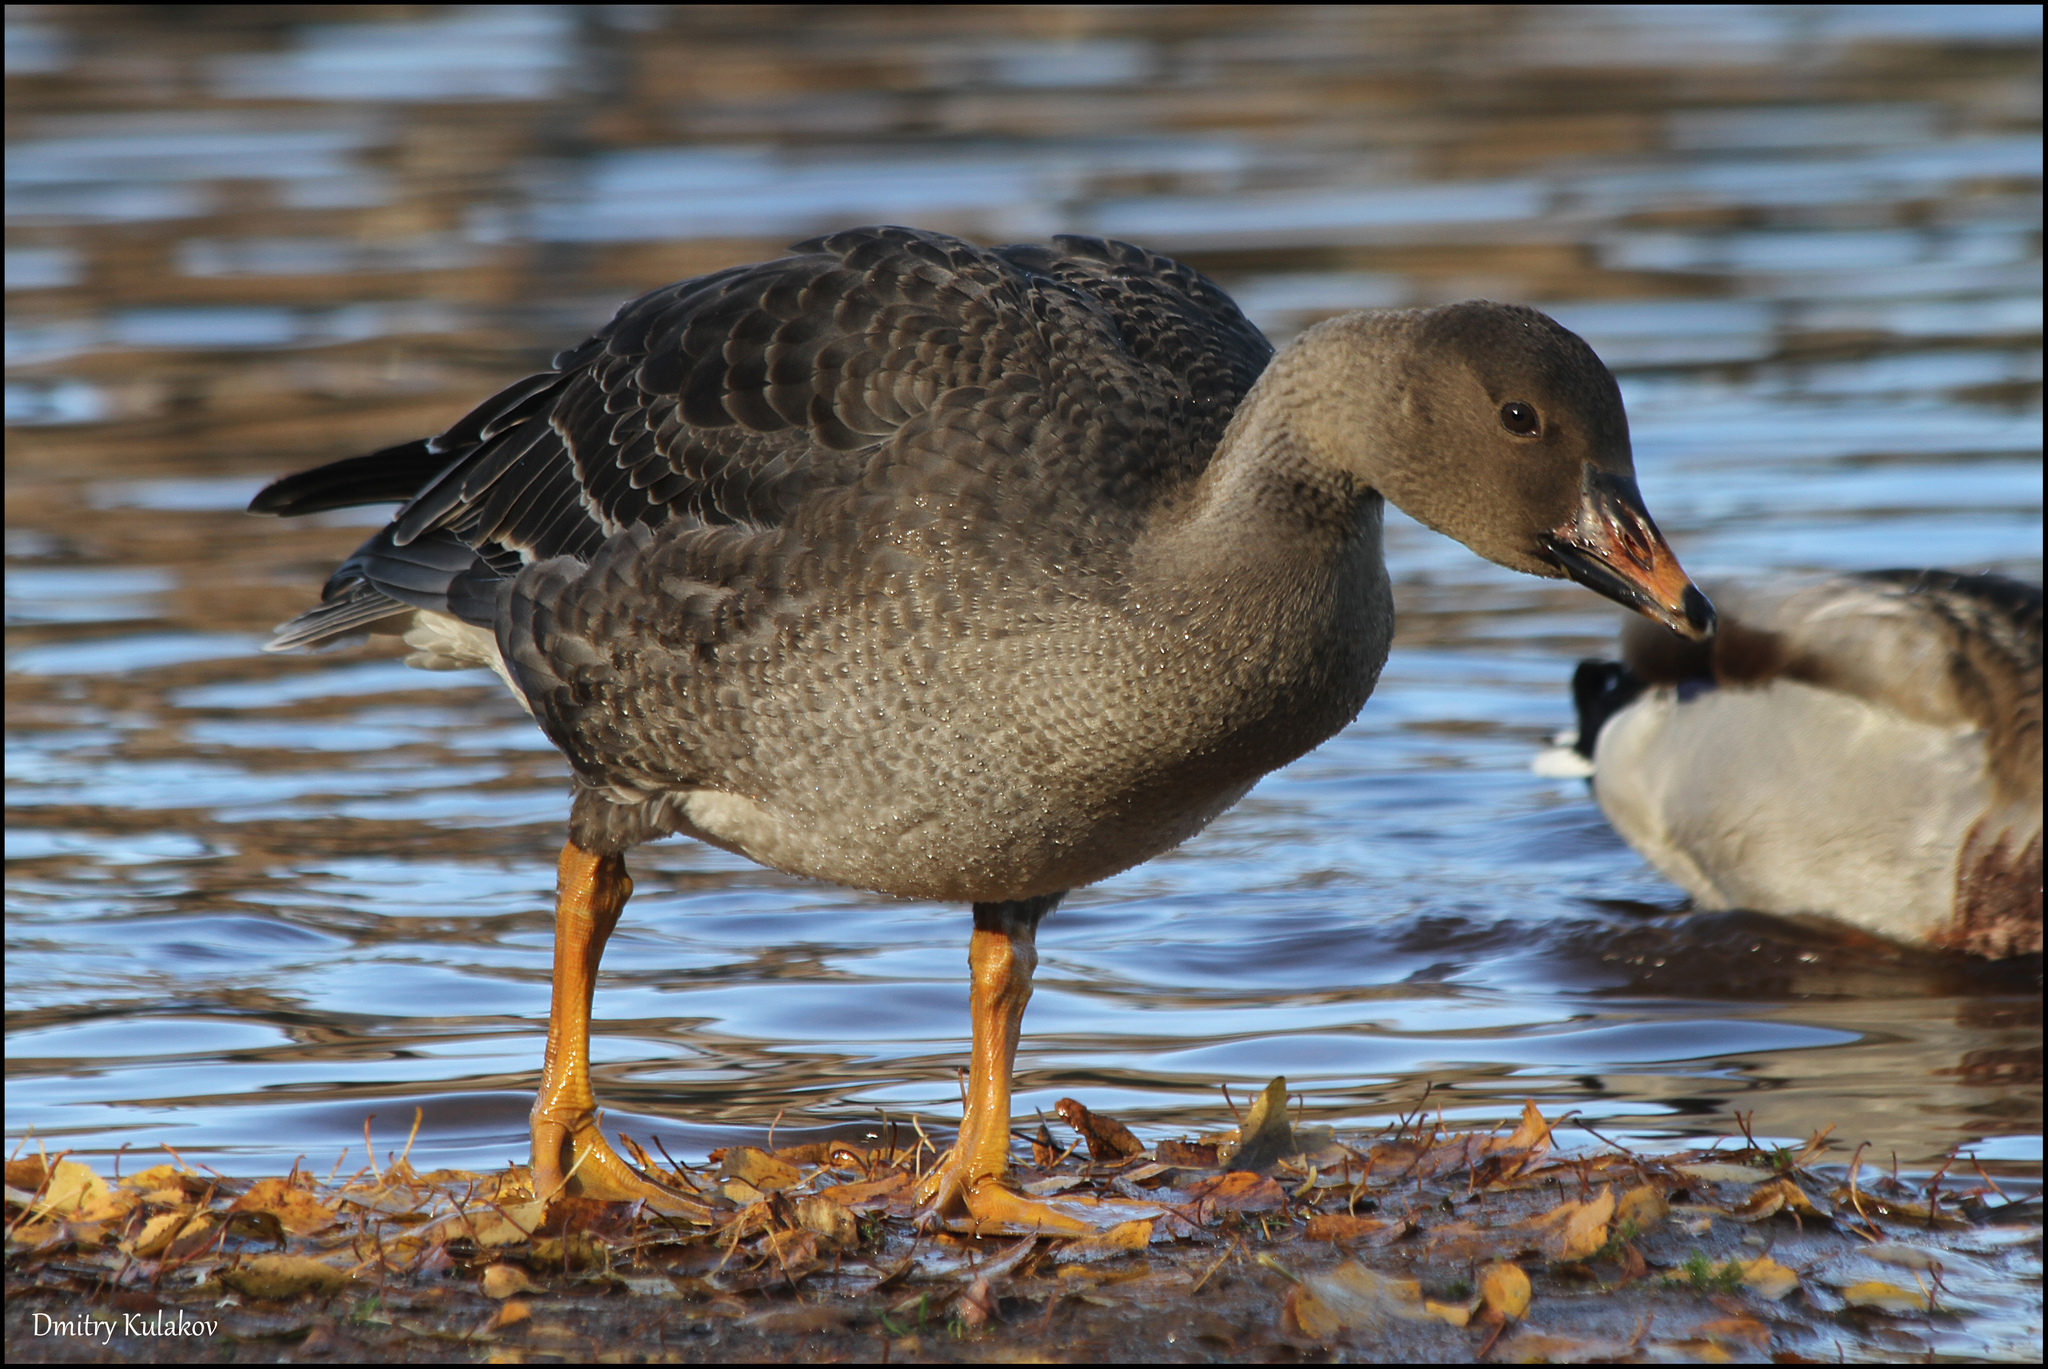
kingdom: Animalia
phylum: Chordata
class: Aves
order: Anseriformes
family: Anatidae
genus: Anser
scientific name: Anser fabalis
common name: Bean goose
